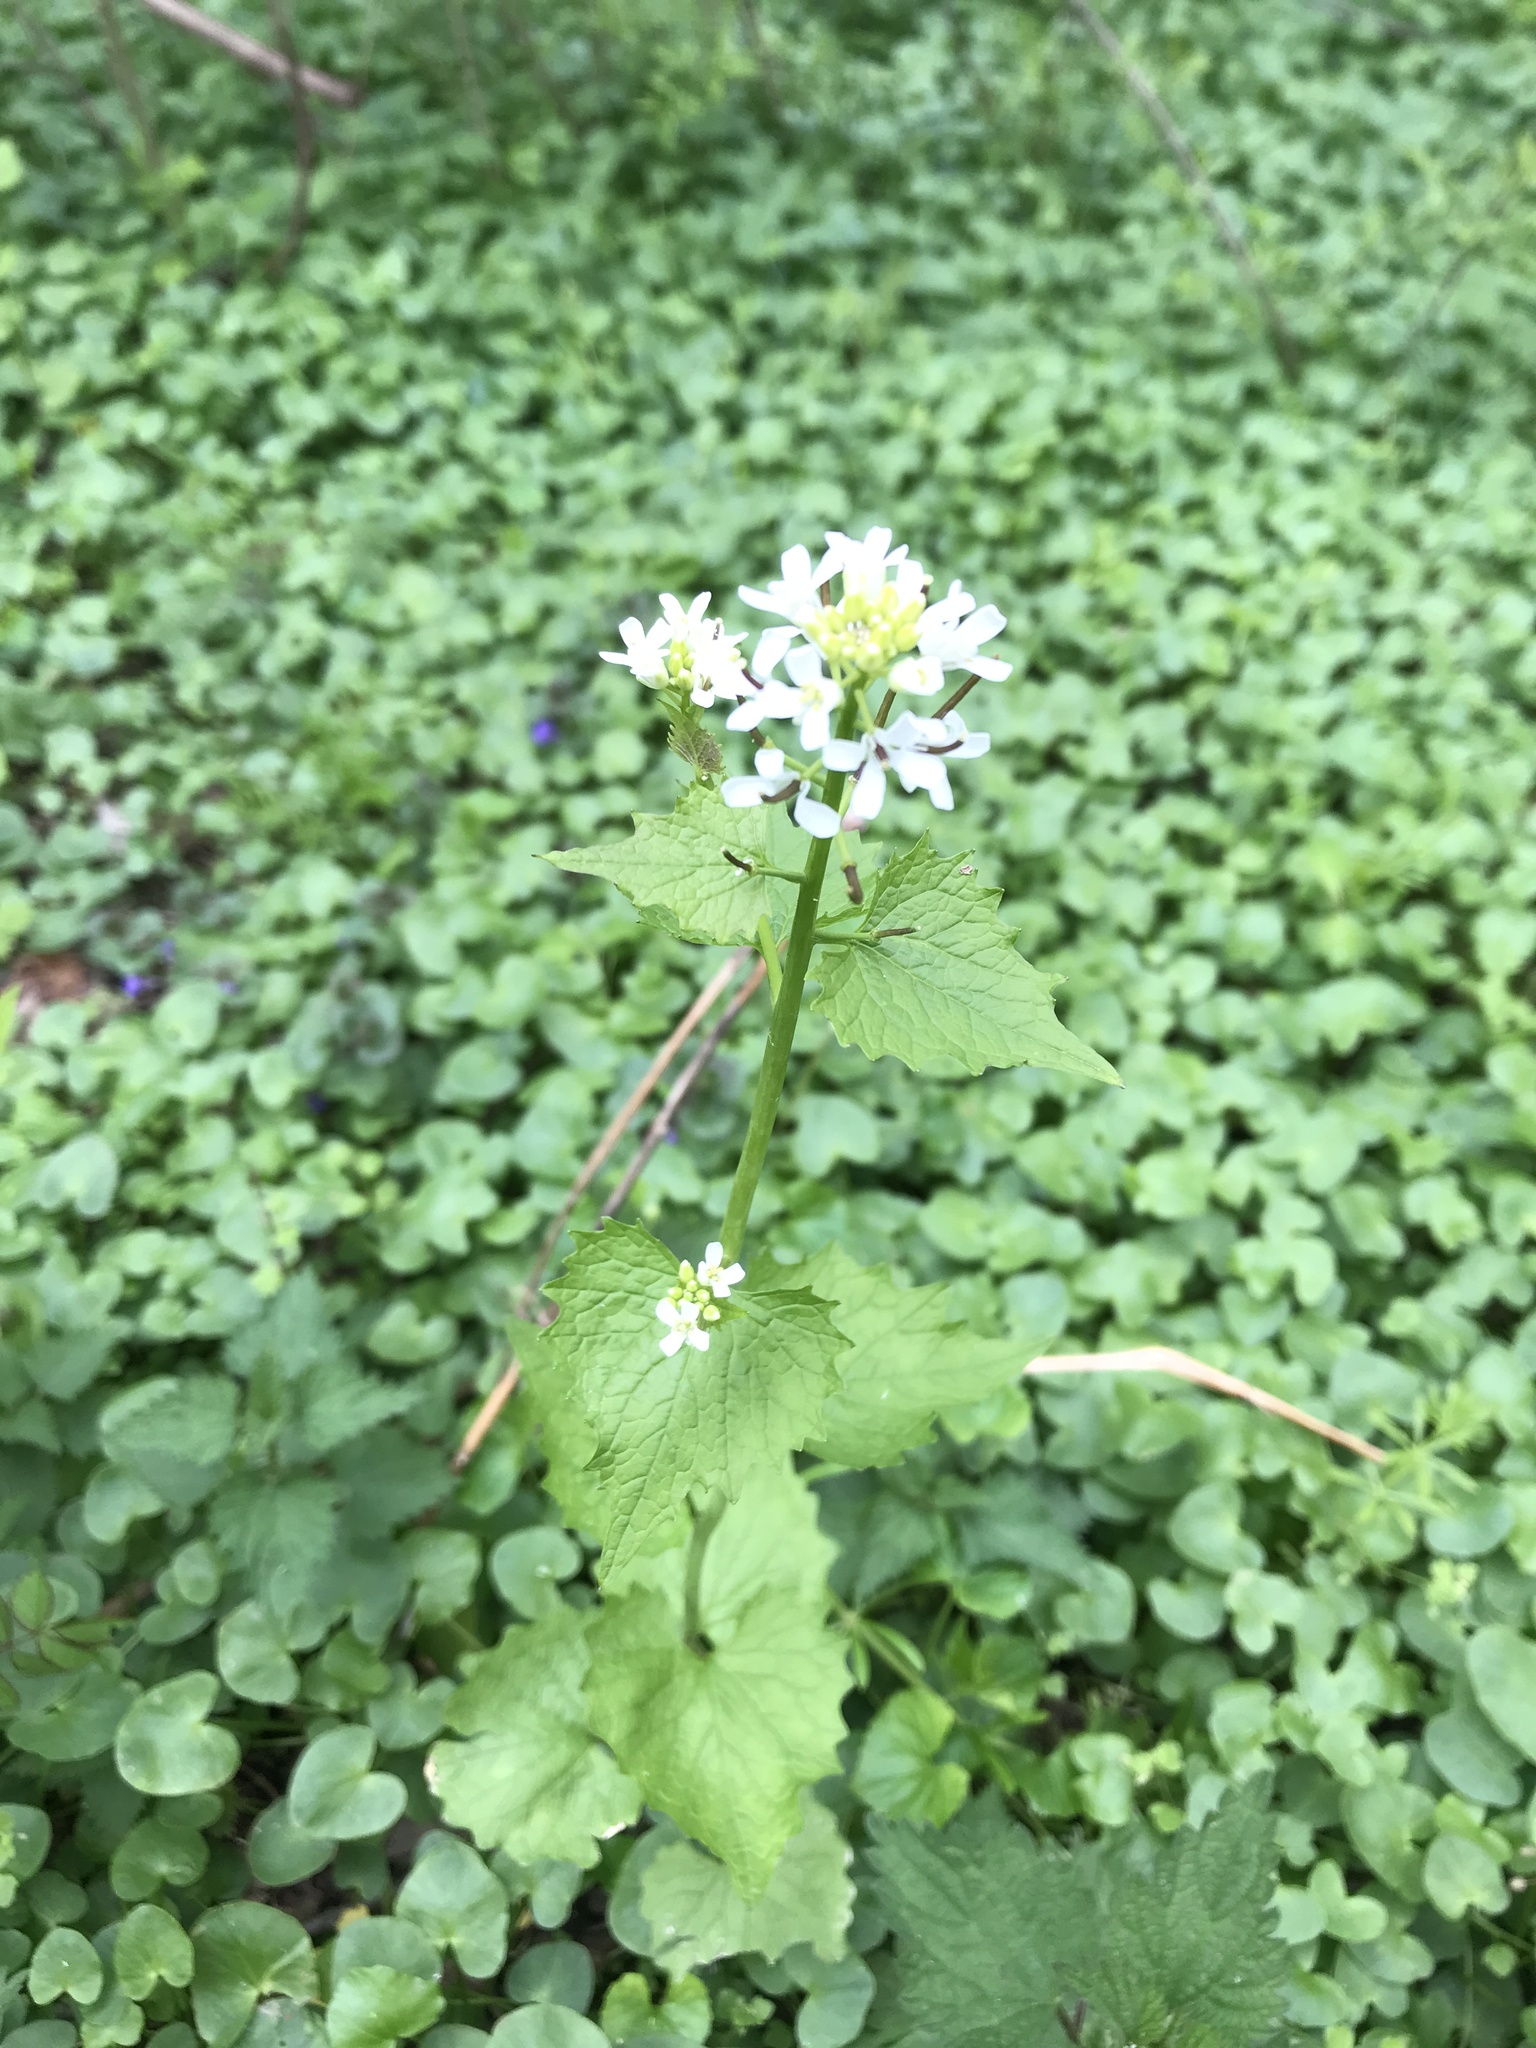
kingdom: Plantae
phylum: Tracheophyta
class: Magnoliopsida
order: Brassicales
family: Brassicaceae
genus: Alliaria
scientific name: Alliaria petiolata
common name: Garlic mustard
